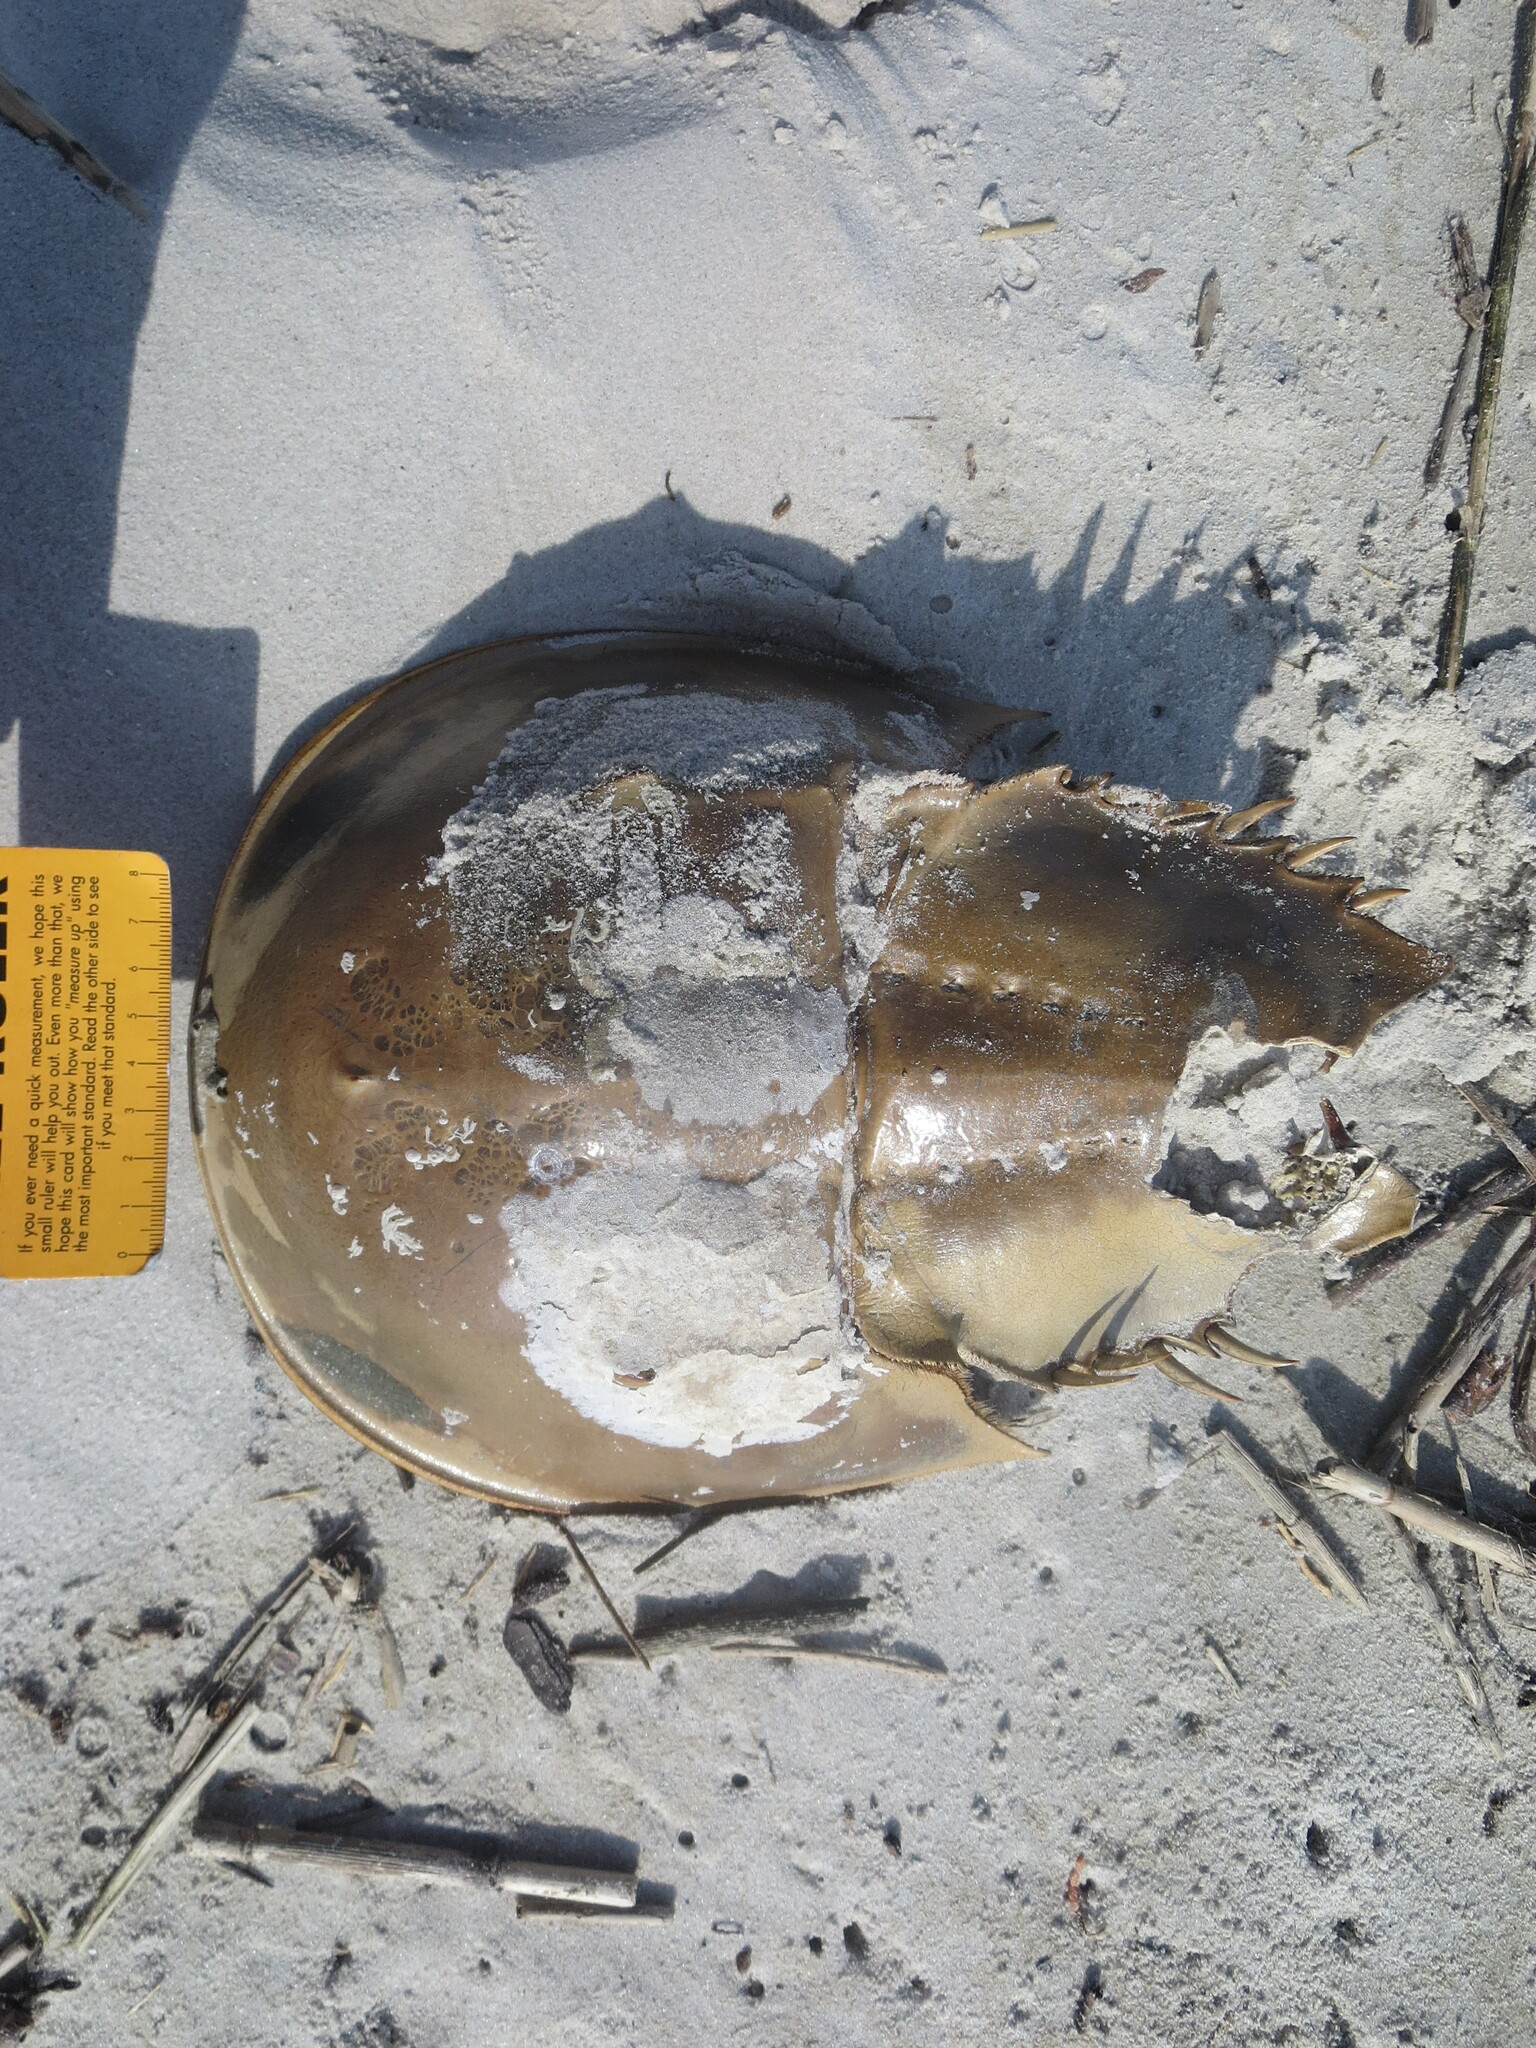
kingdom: Animalia
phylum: Arthropoda
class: Merostomata
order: Xiphosurida
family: Limulidae
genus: Limulus
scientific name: Limulus polyphemus
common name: Horseshoe crab
